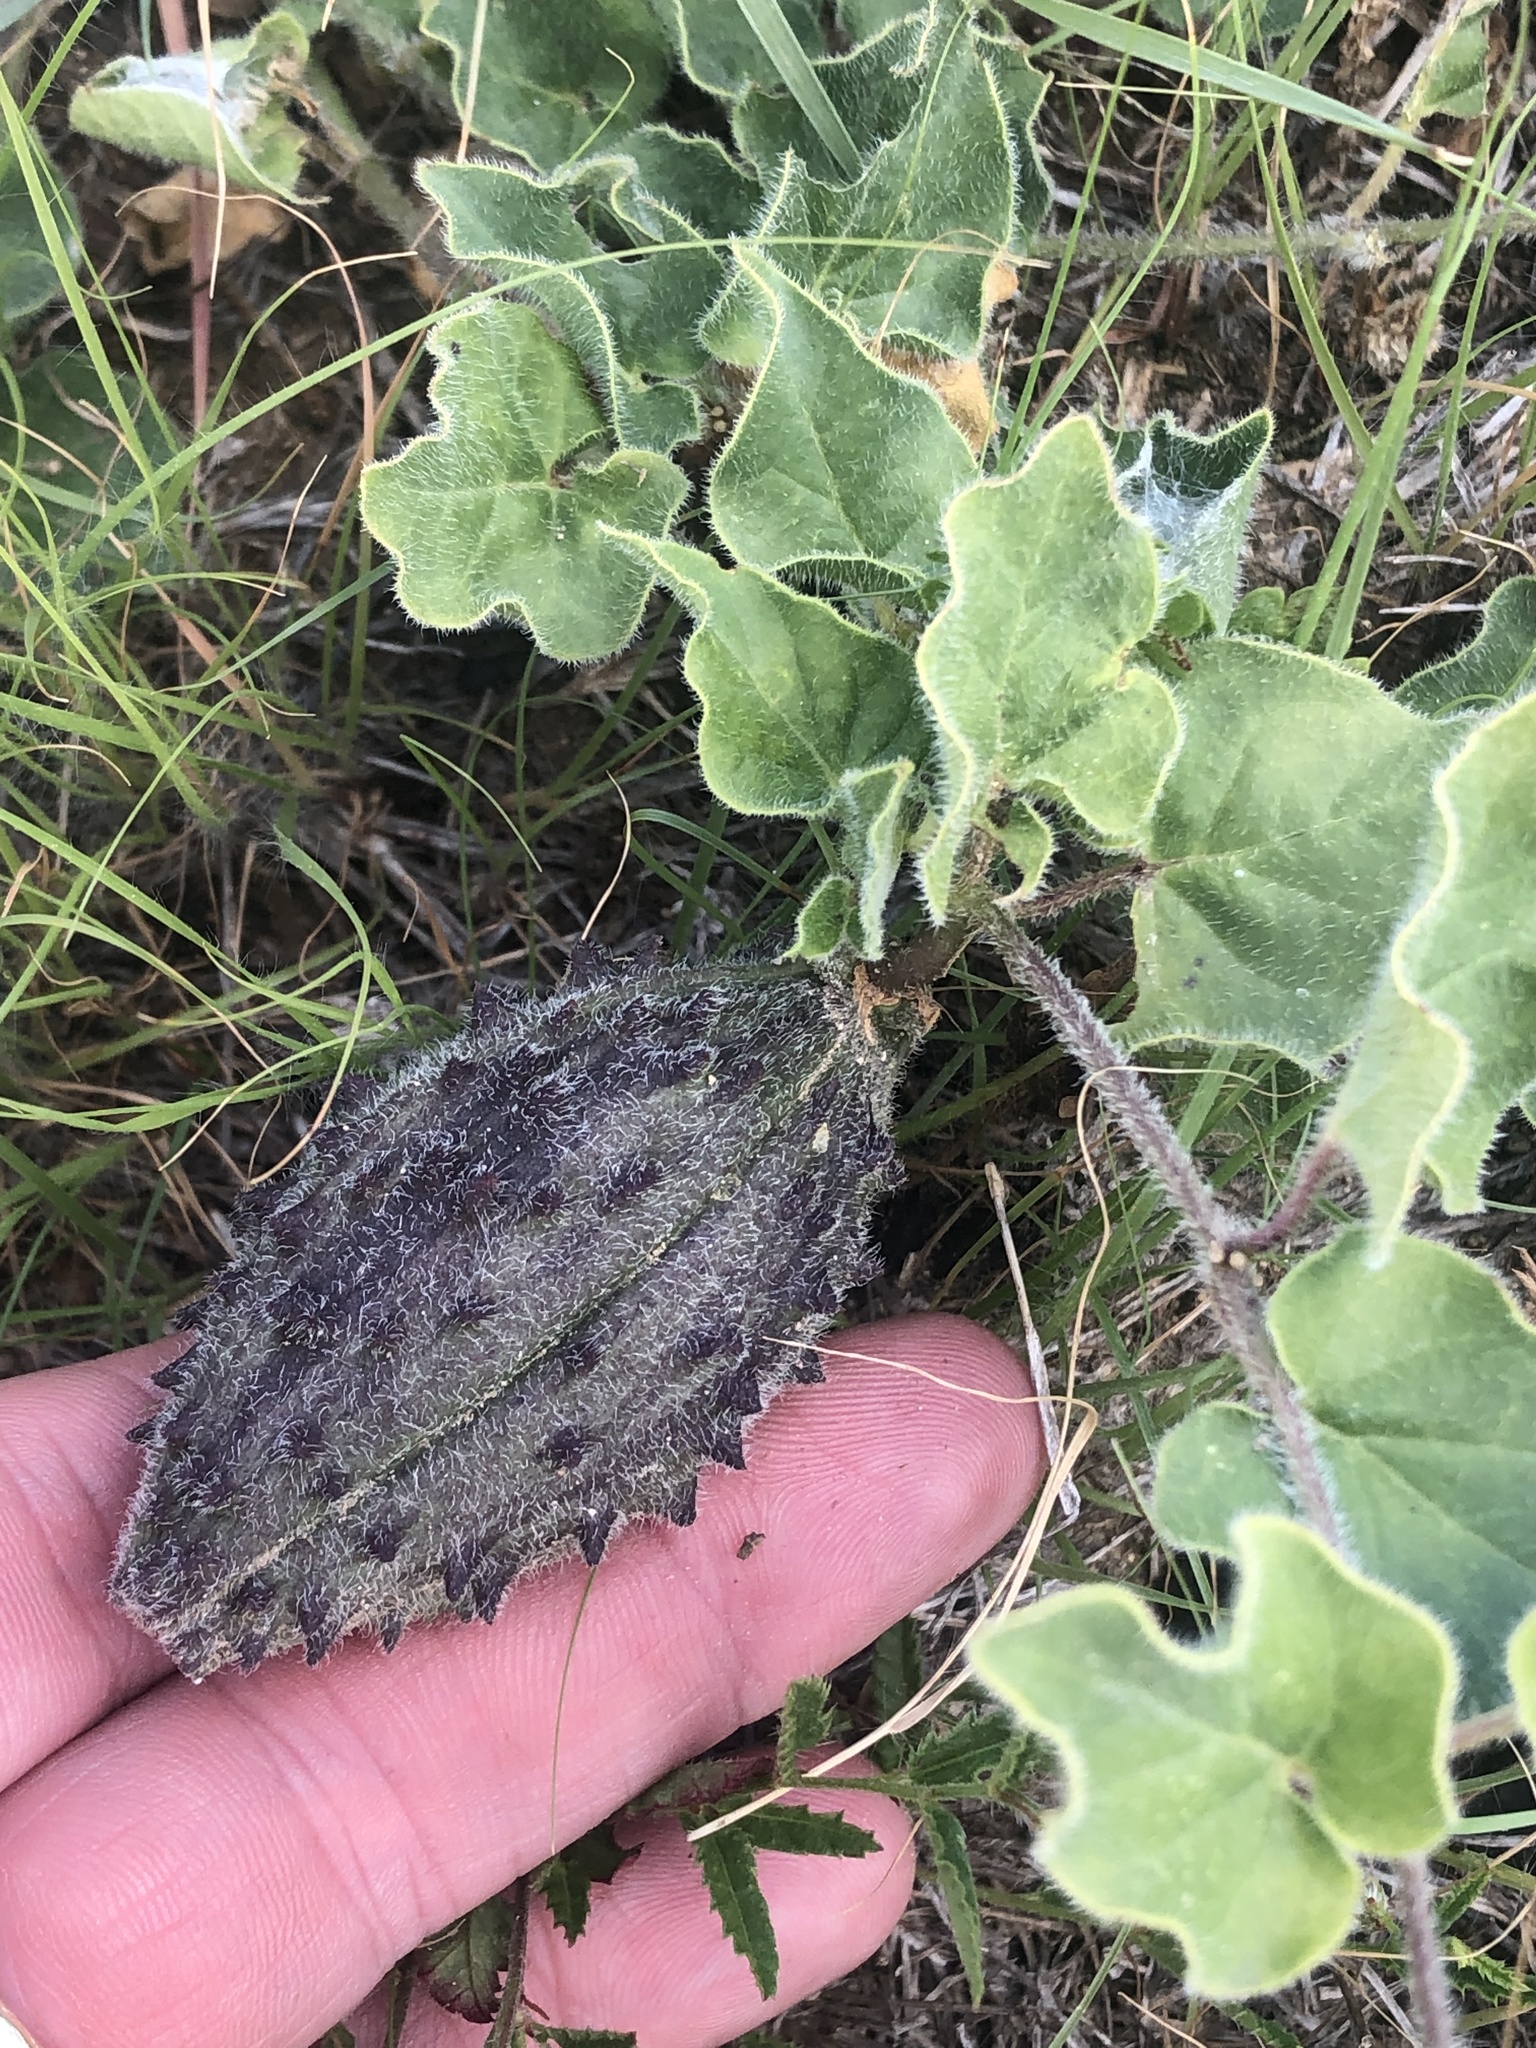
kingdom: Plantae
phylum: Tracheophyta
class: Magnoliopsida
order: Gentianales
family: Apocynaceae
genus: Chthamalia
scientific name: Chthamalia biflora
